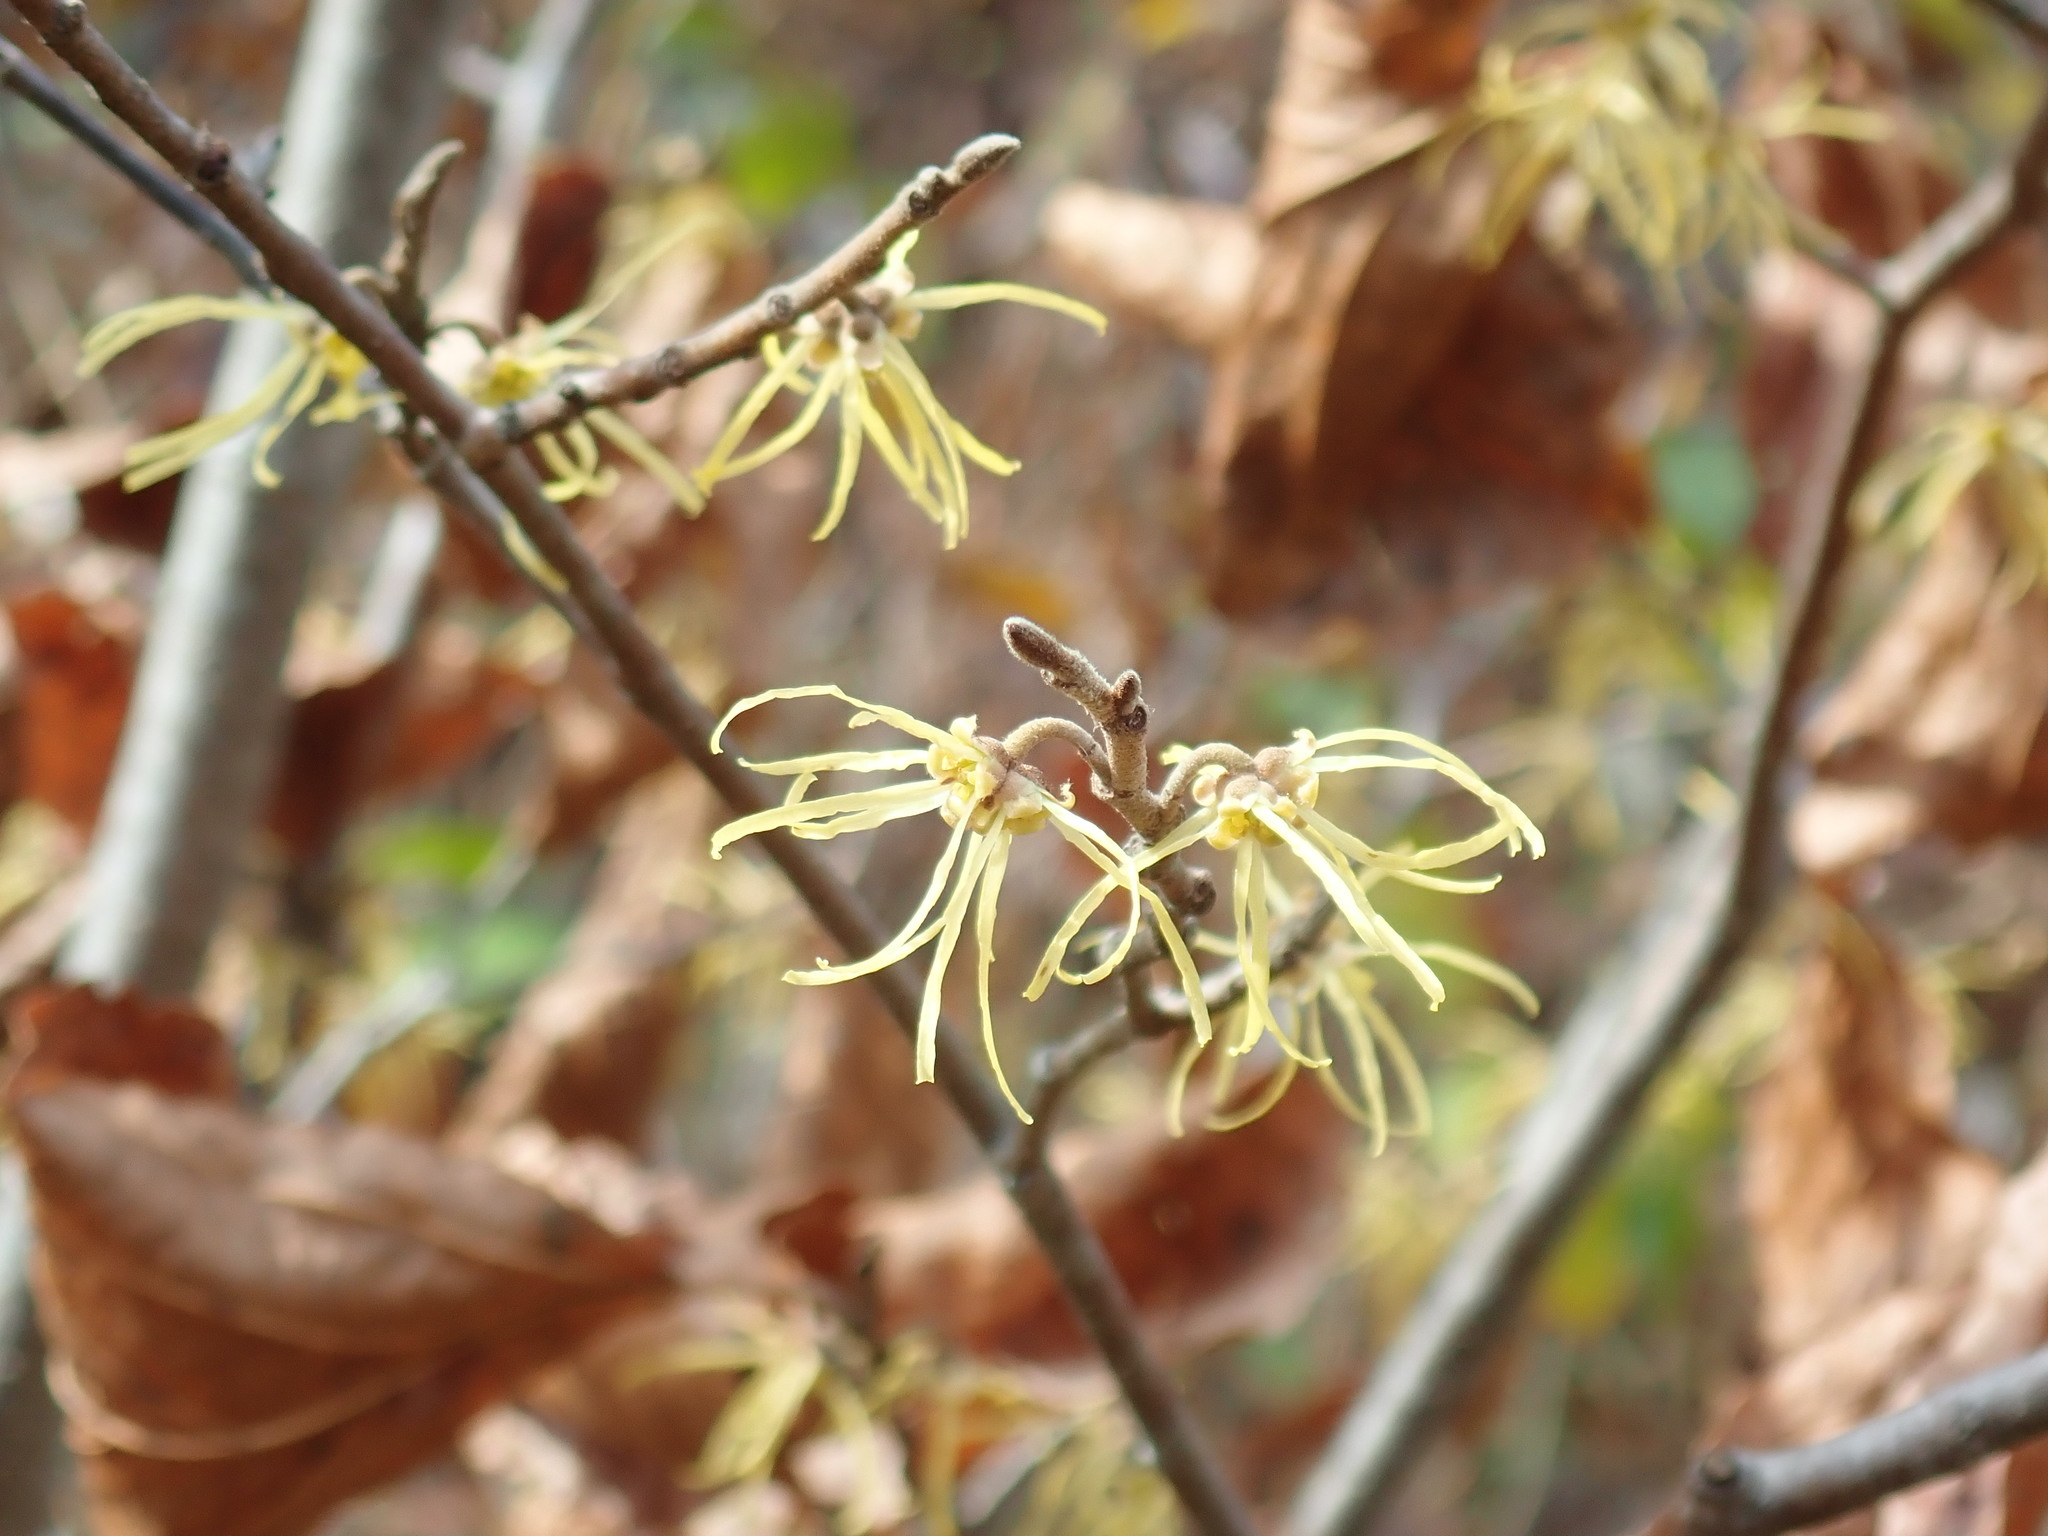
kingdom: Plantae
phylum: Tracheophyta
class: Magnoliopsida
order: Saxifragales
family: Hamamelidaceae
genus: Hamamelis
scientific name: Hamamelis virginiana
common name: Witch-hazel
